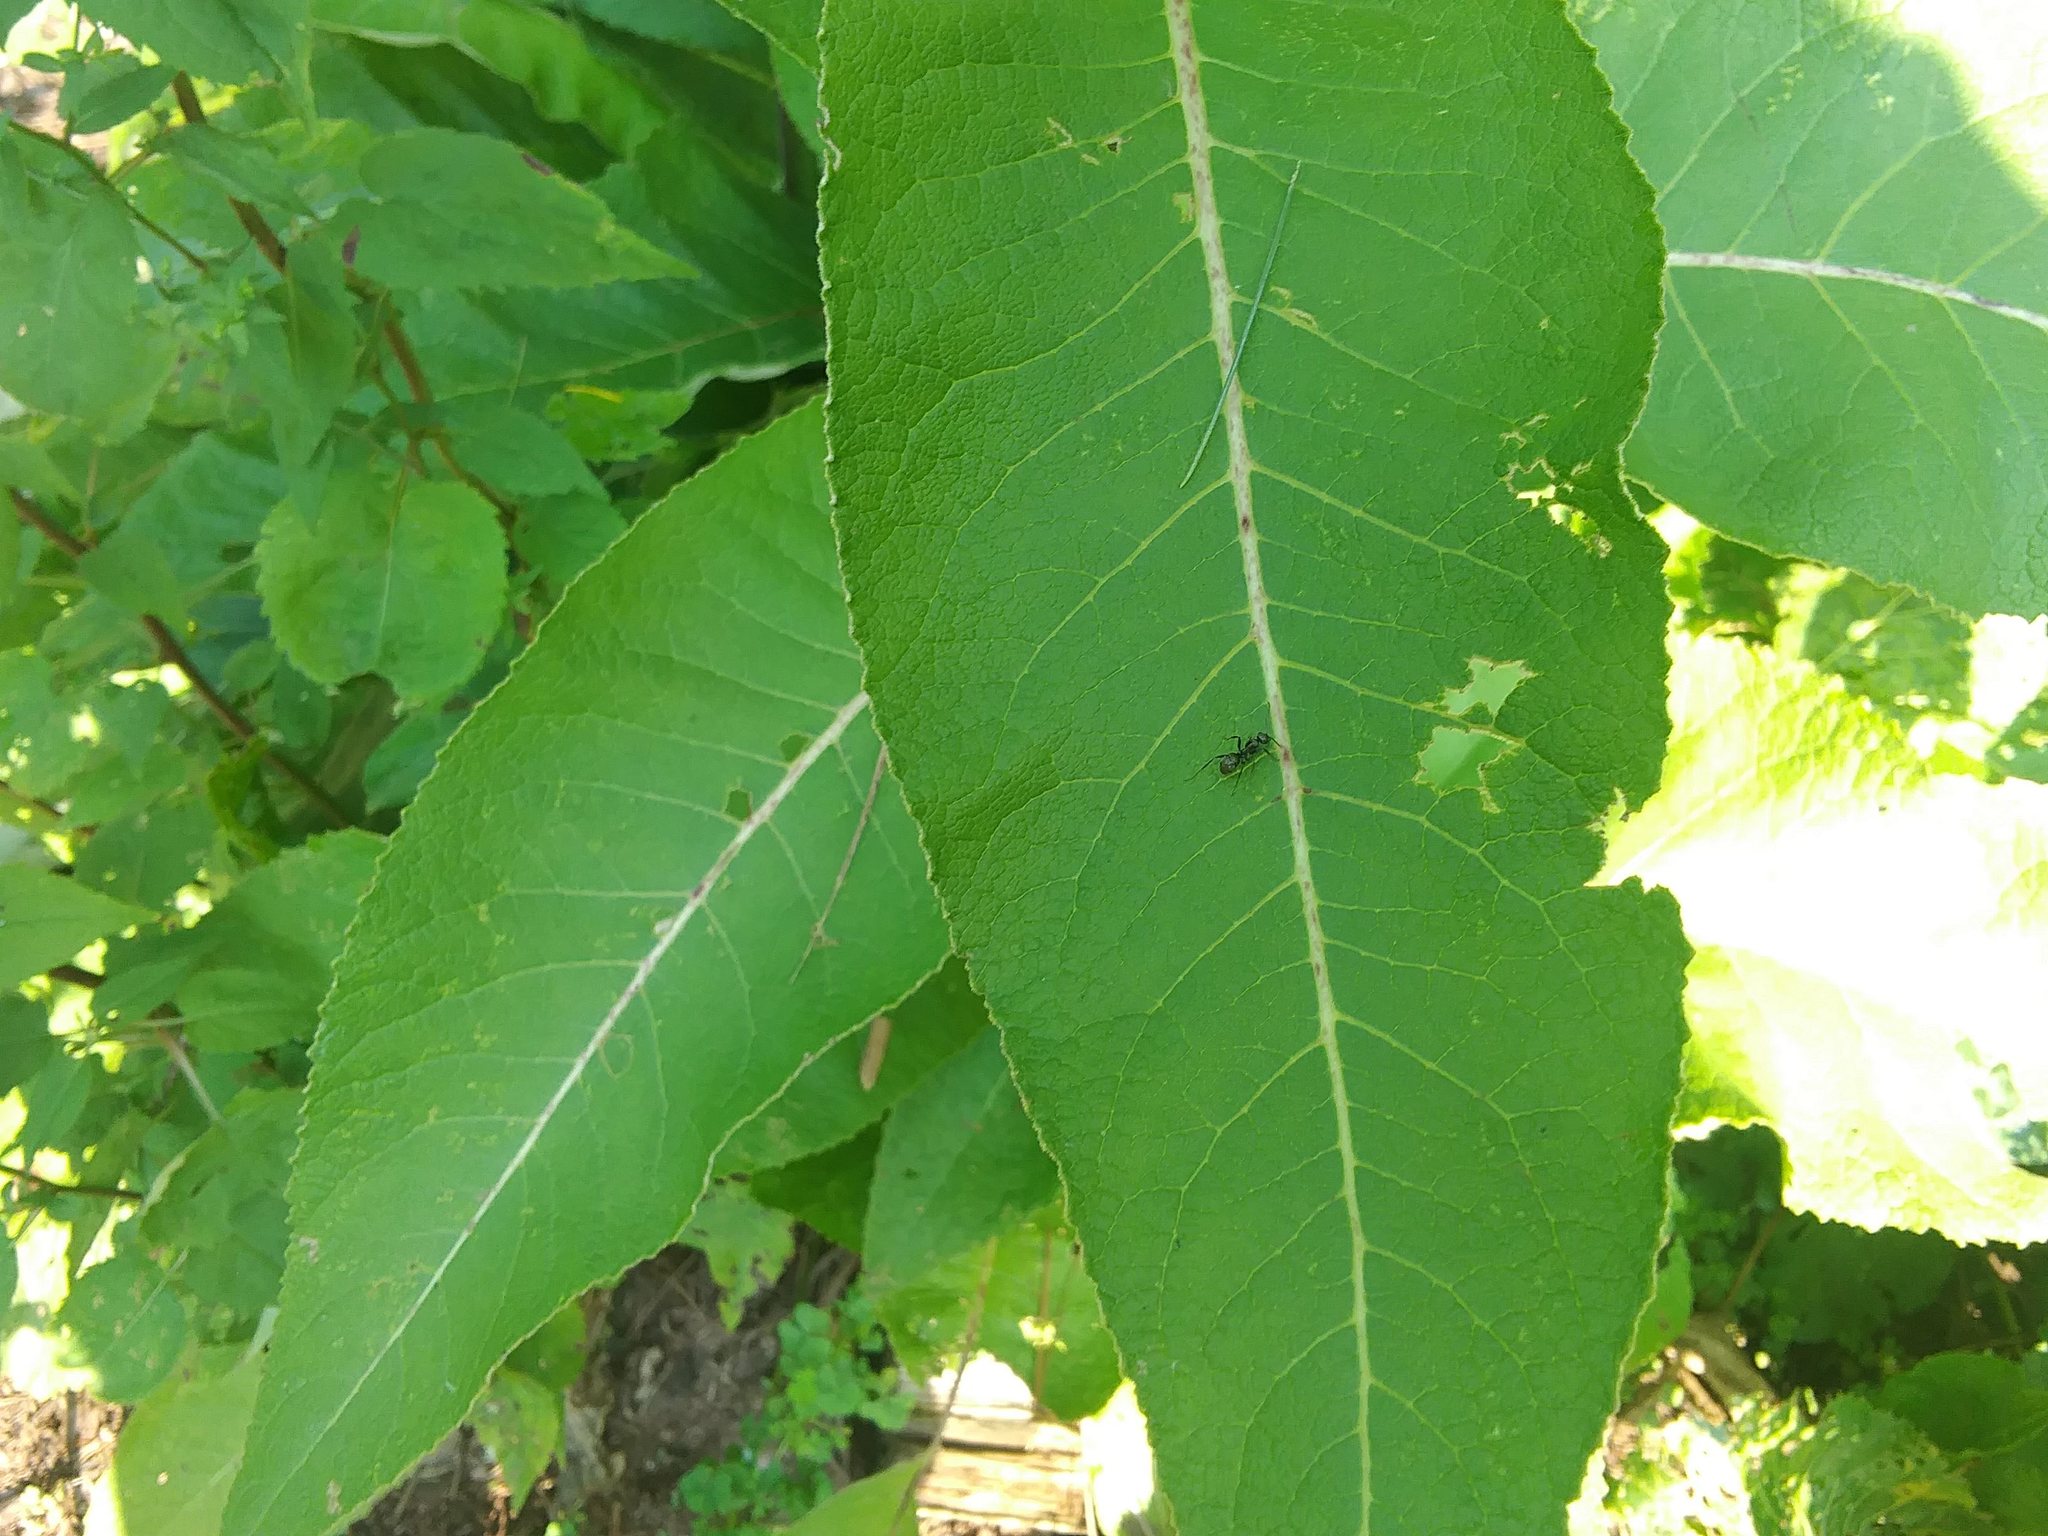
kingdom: Animalia
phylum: Arthropoda
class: Insecta
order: Hymenoptera
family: Formicidae
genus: Formica
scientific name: Formica
